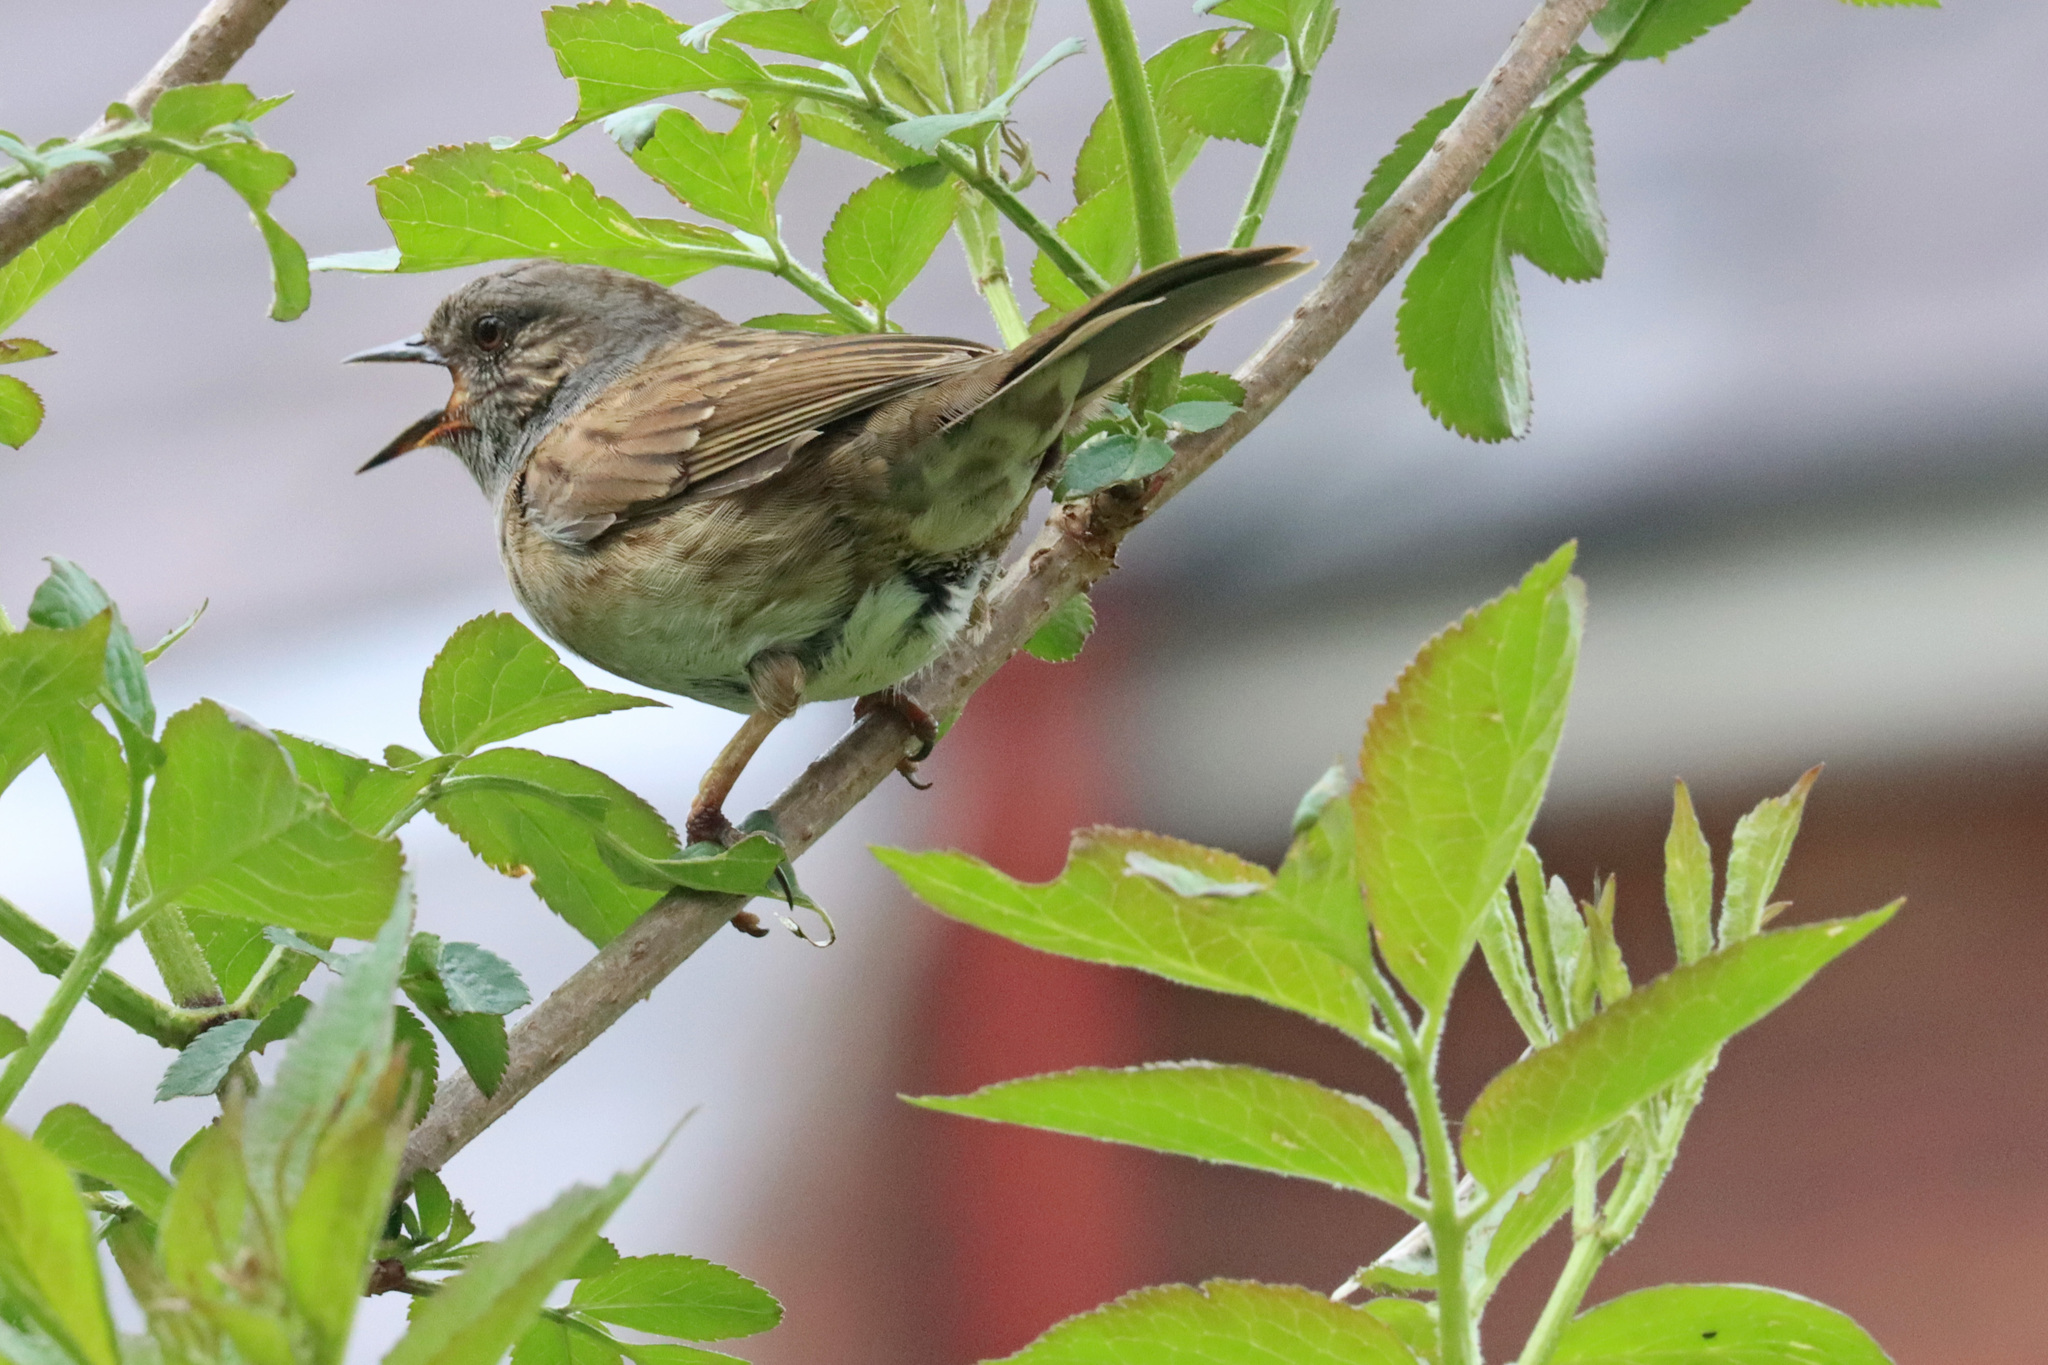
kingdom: Animalia
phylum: Chordata
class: Aves
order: Passeriformes
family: Prunellidae
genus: Prunella
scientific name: Prunella modularis
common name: Dunnock
